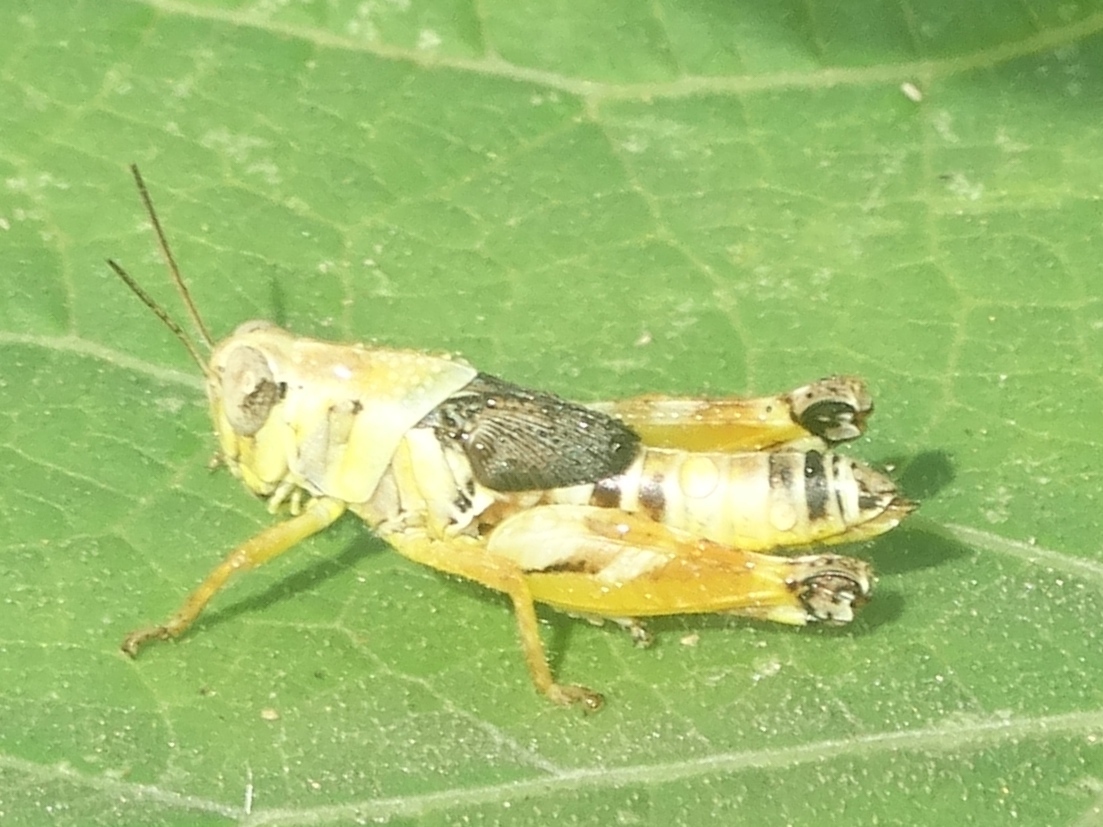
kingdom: Animalia
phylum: Arthropoda
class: Insecta
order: Orthoptera
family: Acrididae
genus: Aidemona
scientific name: Aidemona
